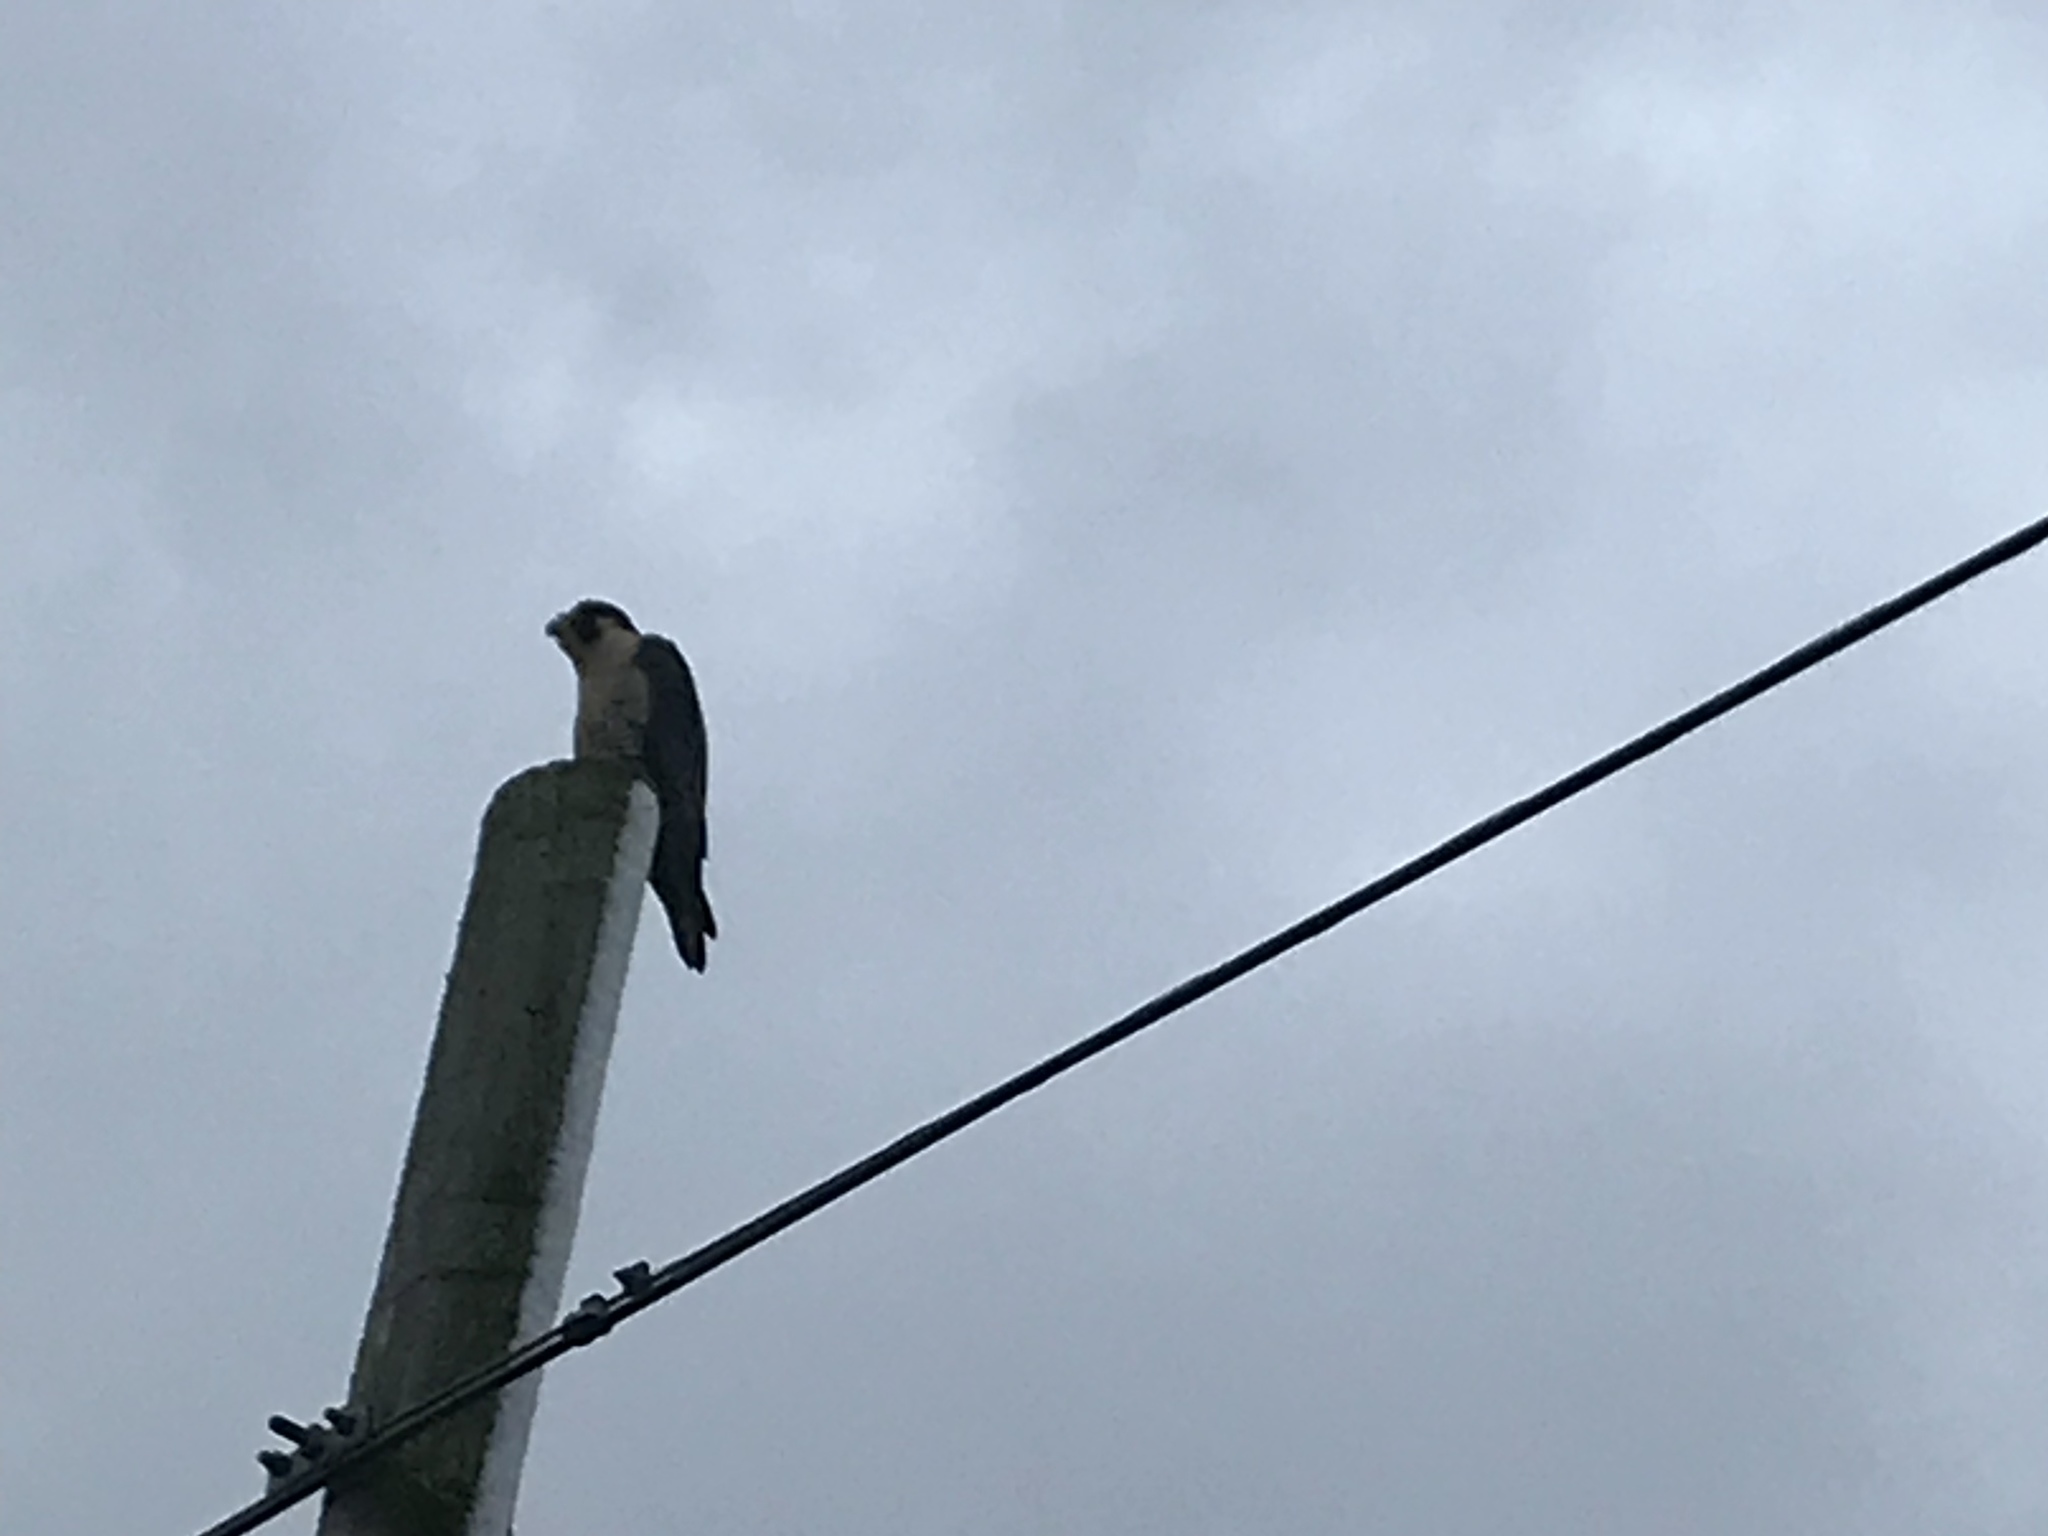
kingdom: Animalia
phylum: Chordata
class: Aves
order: Falconiformes
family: Falconidae
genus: Falco
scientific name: Falco peregrinus
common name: Peregrine falcon
